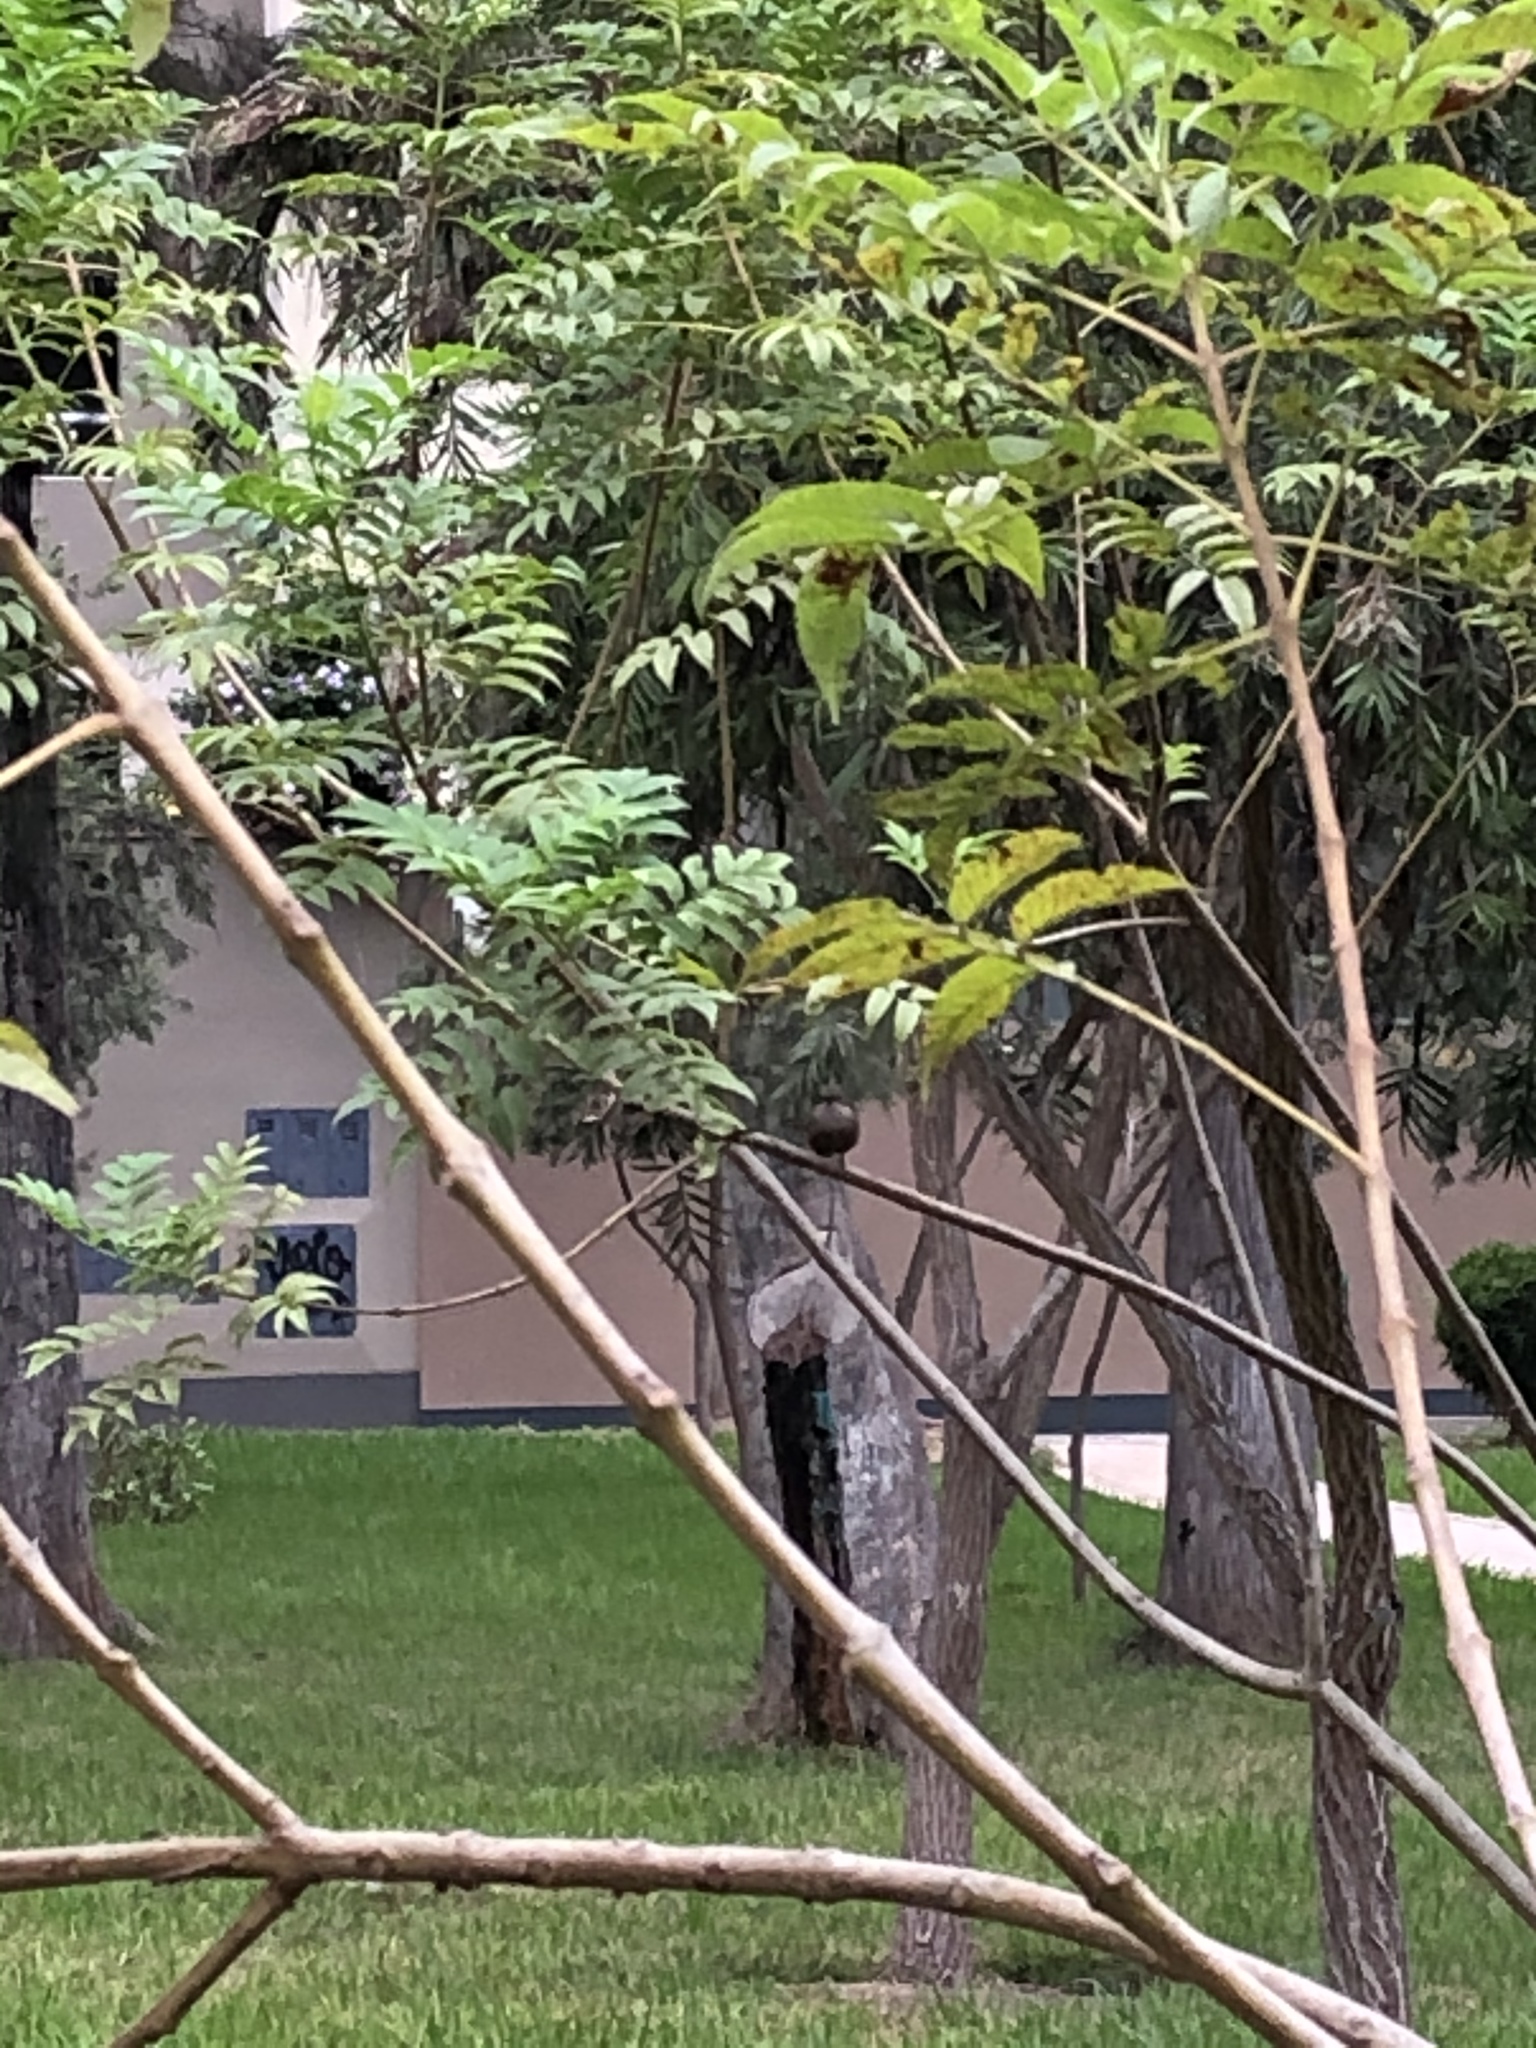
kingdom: Animalia
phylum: Chordata
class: Aves
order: Passeriformes
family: Tyrannidae
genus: Pyrocephalus
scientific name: Pyrocephalus rubinus
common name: Vermilion flycatcher
